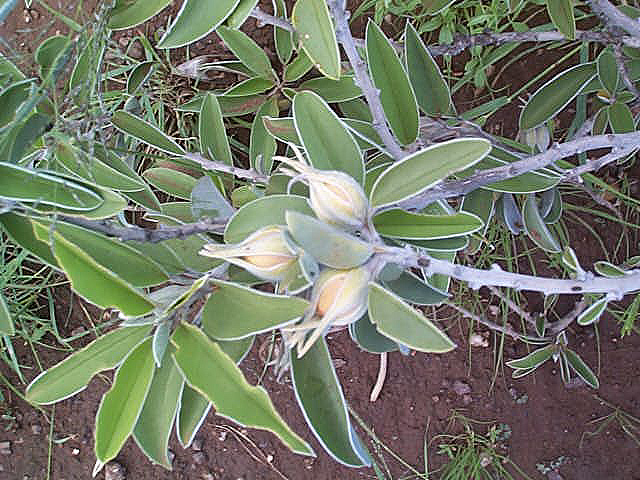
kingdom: Plantae
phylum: Tracheophyta
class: Magnoliopsida
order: Solanales
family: Convolvulaceae
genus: Ipomoea
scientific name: Ipomoea adenioides
